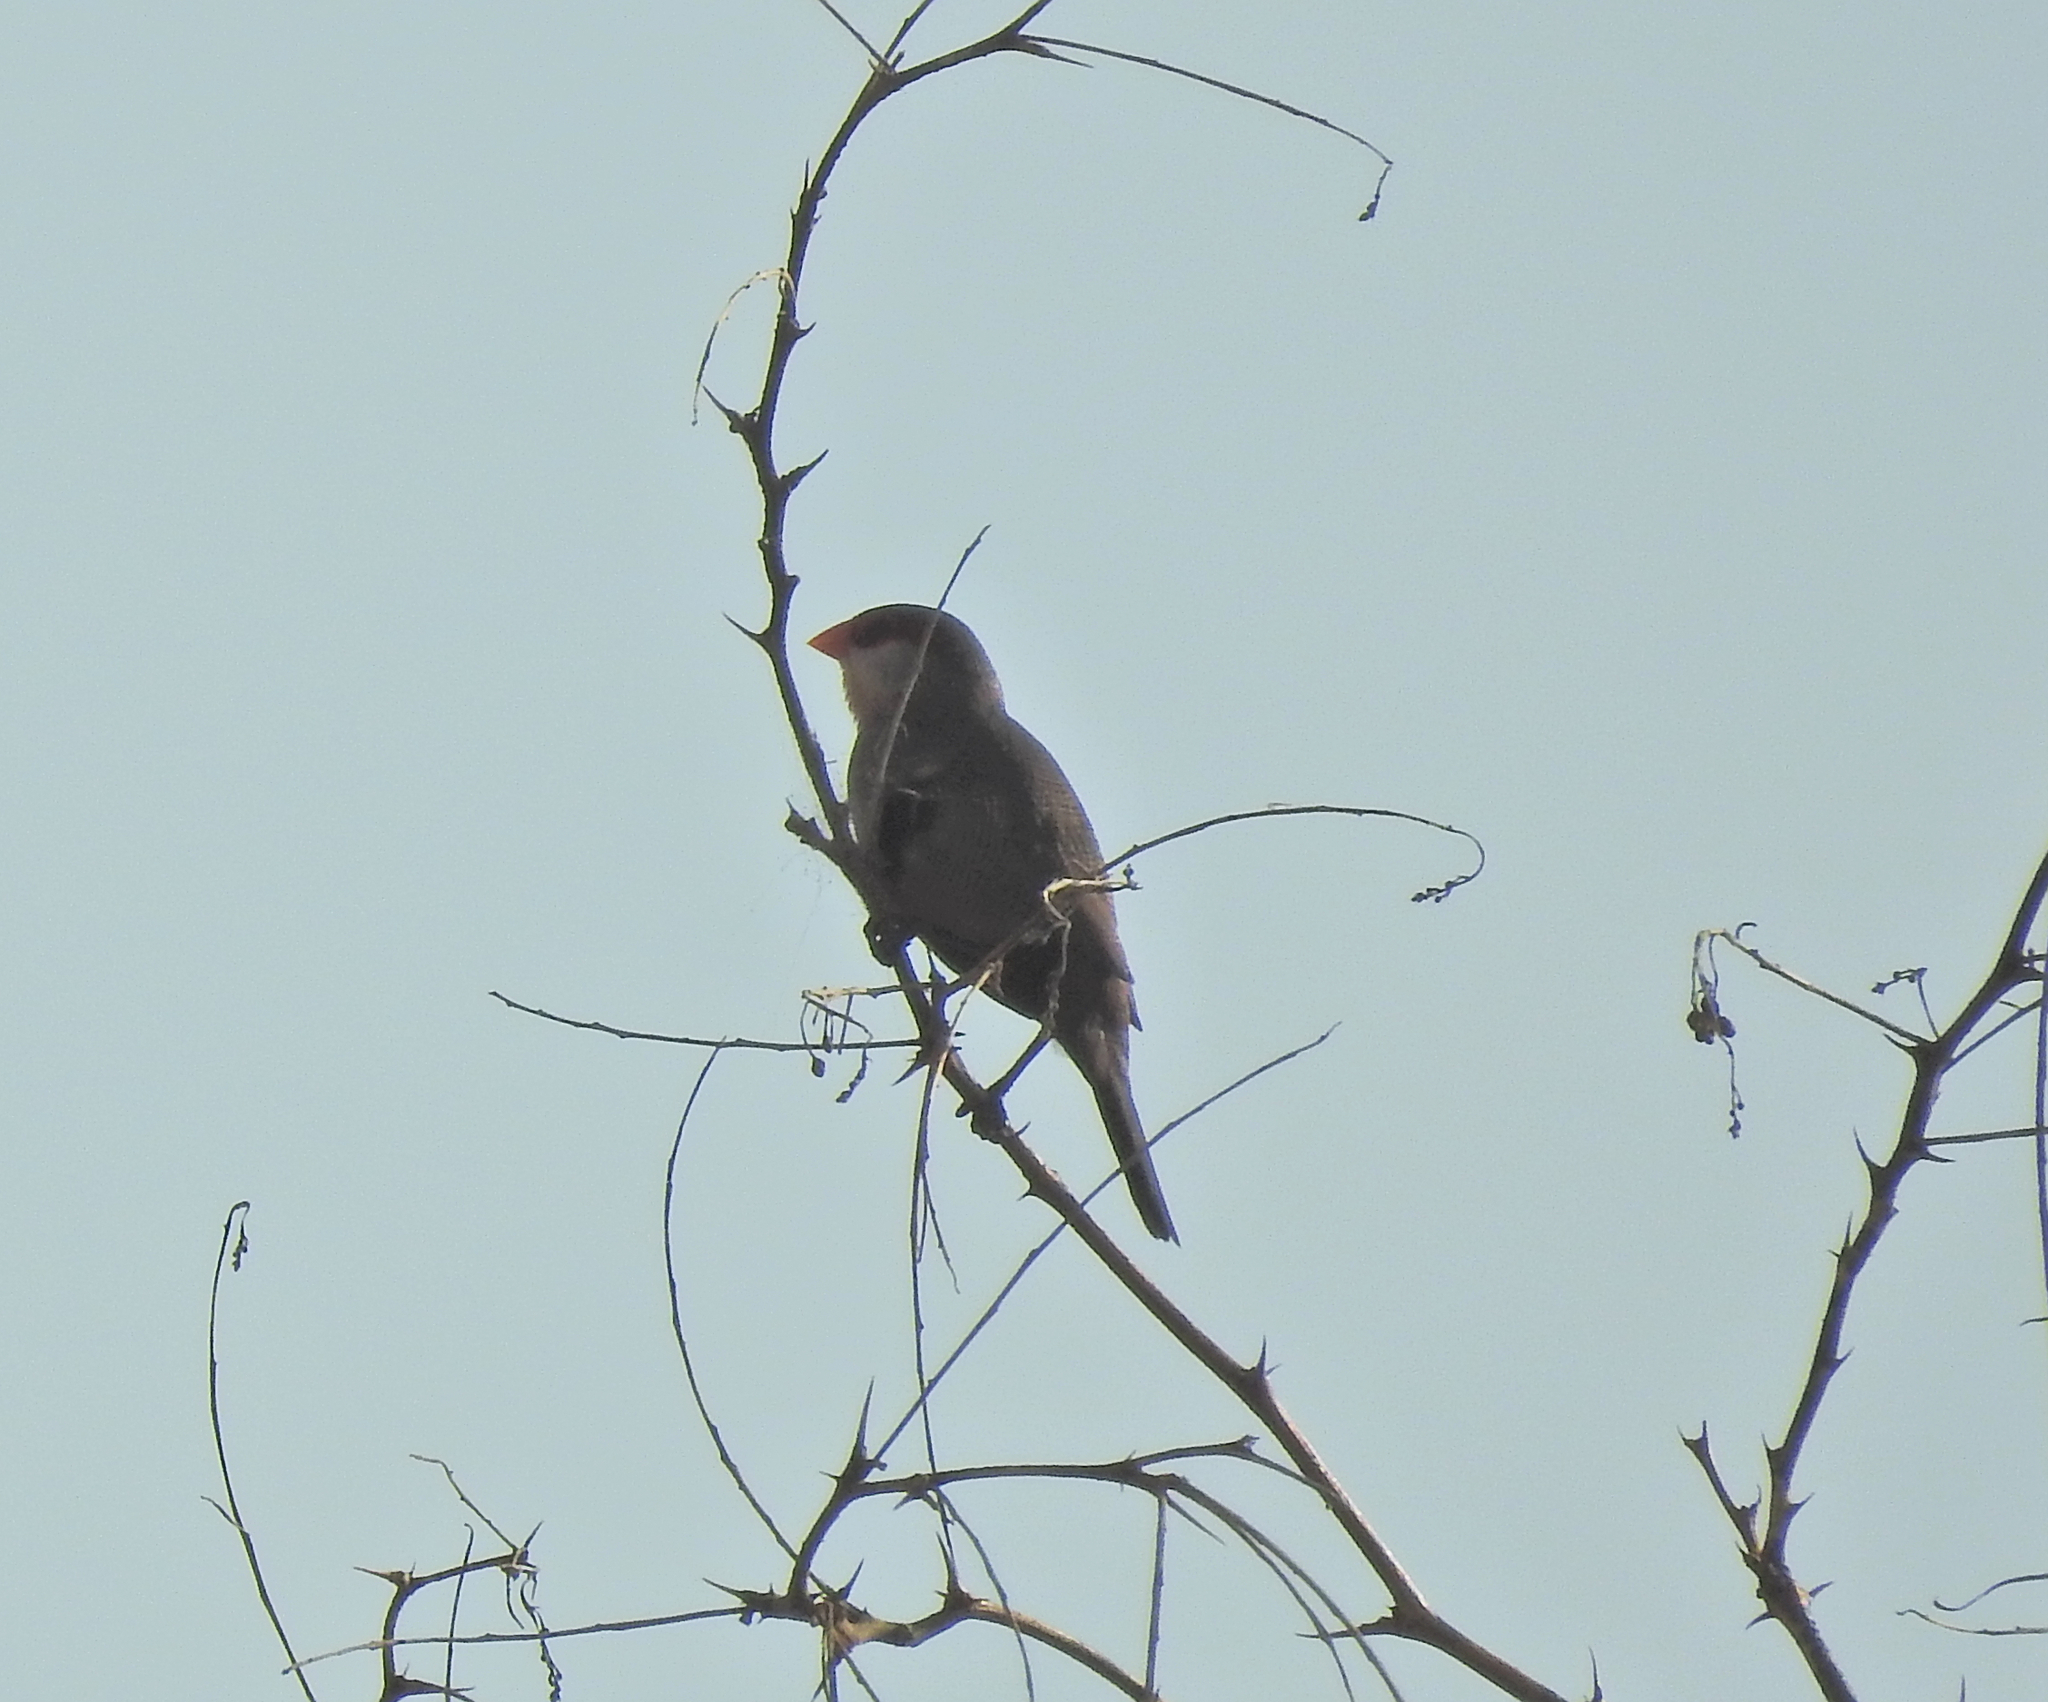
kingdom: Animalia
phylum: Chordata
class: Aves
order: Passeriformes
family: Estrildidae
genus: Estrilda
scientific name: Estrilda astrild
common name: Common waxbill
